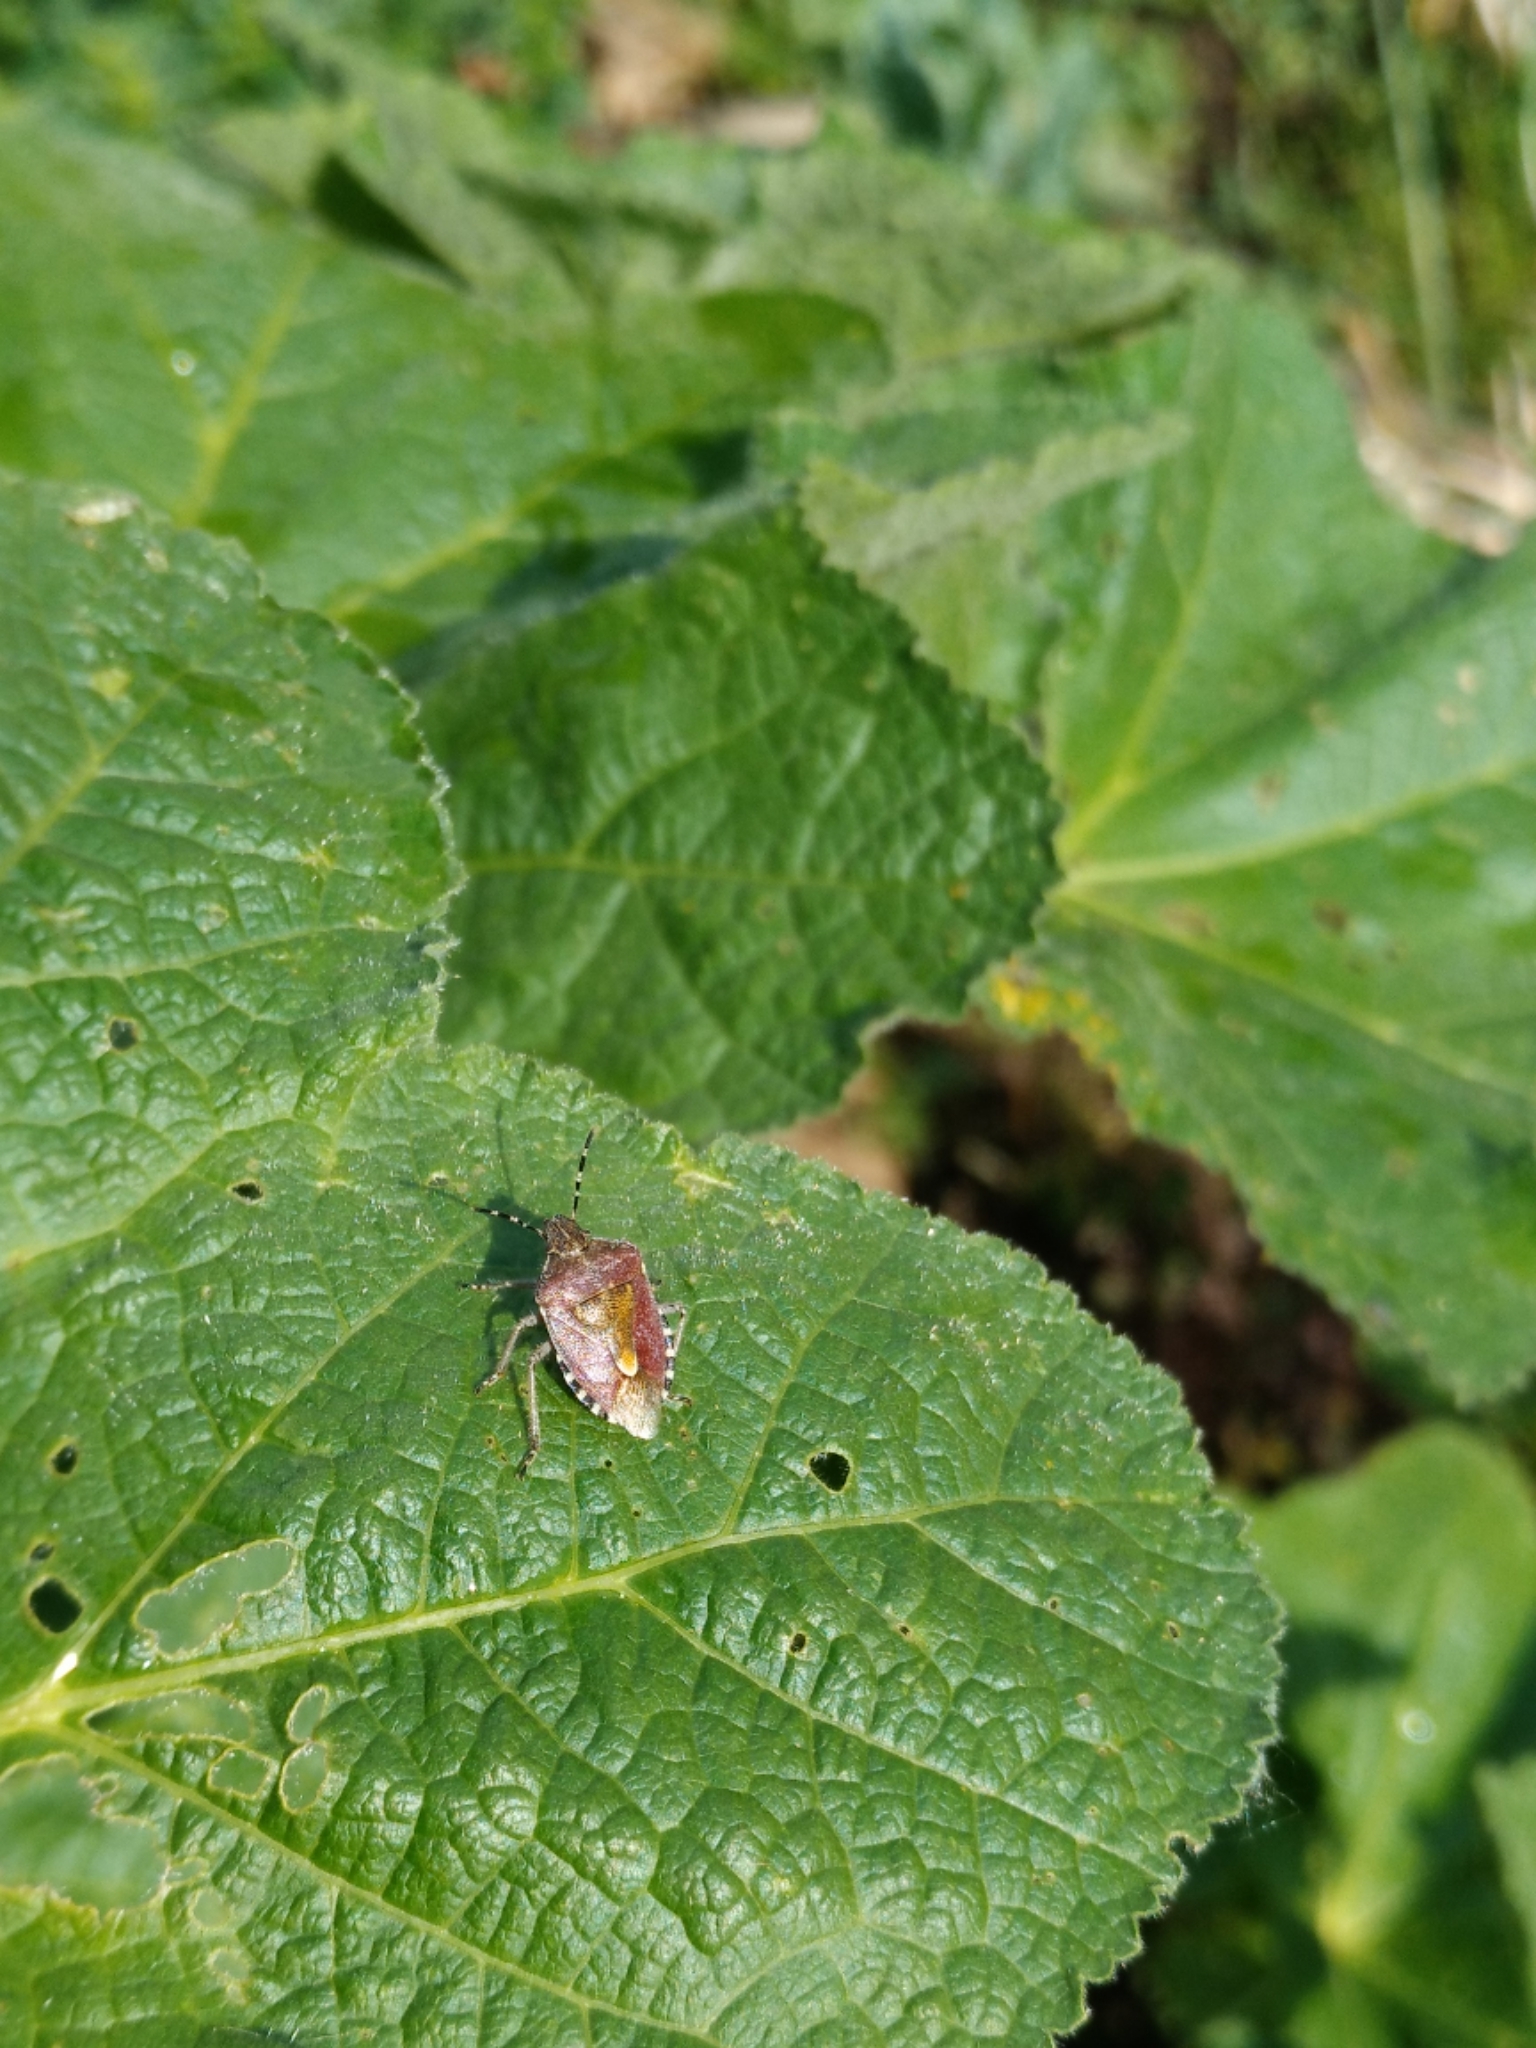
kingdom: Animalia
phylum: Arthropoda
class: Insecta
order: Hemiptera
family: Pentatomidae
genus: Dolycoris
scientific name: Dolycoris baccarum
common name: Sloe bug
